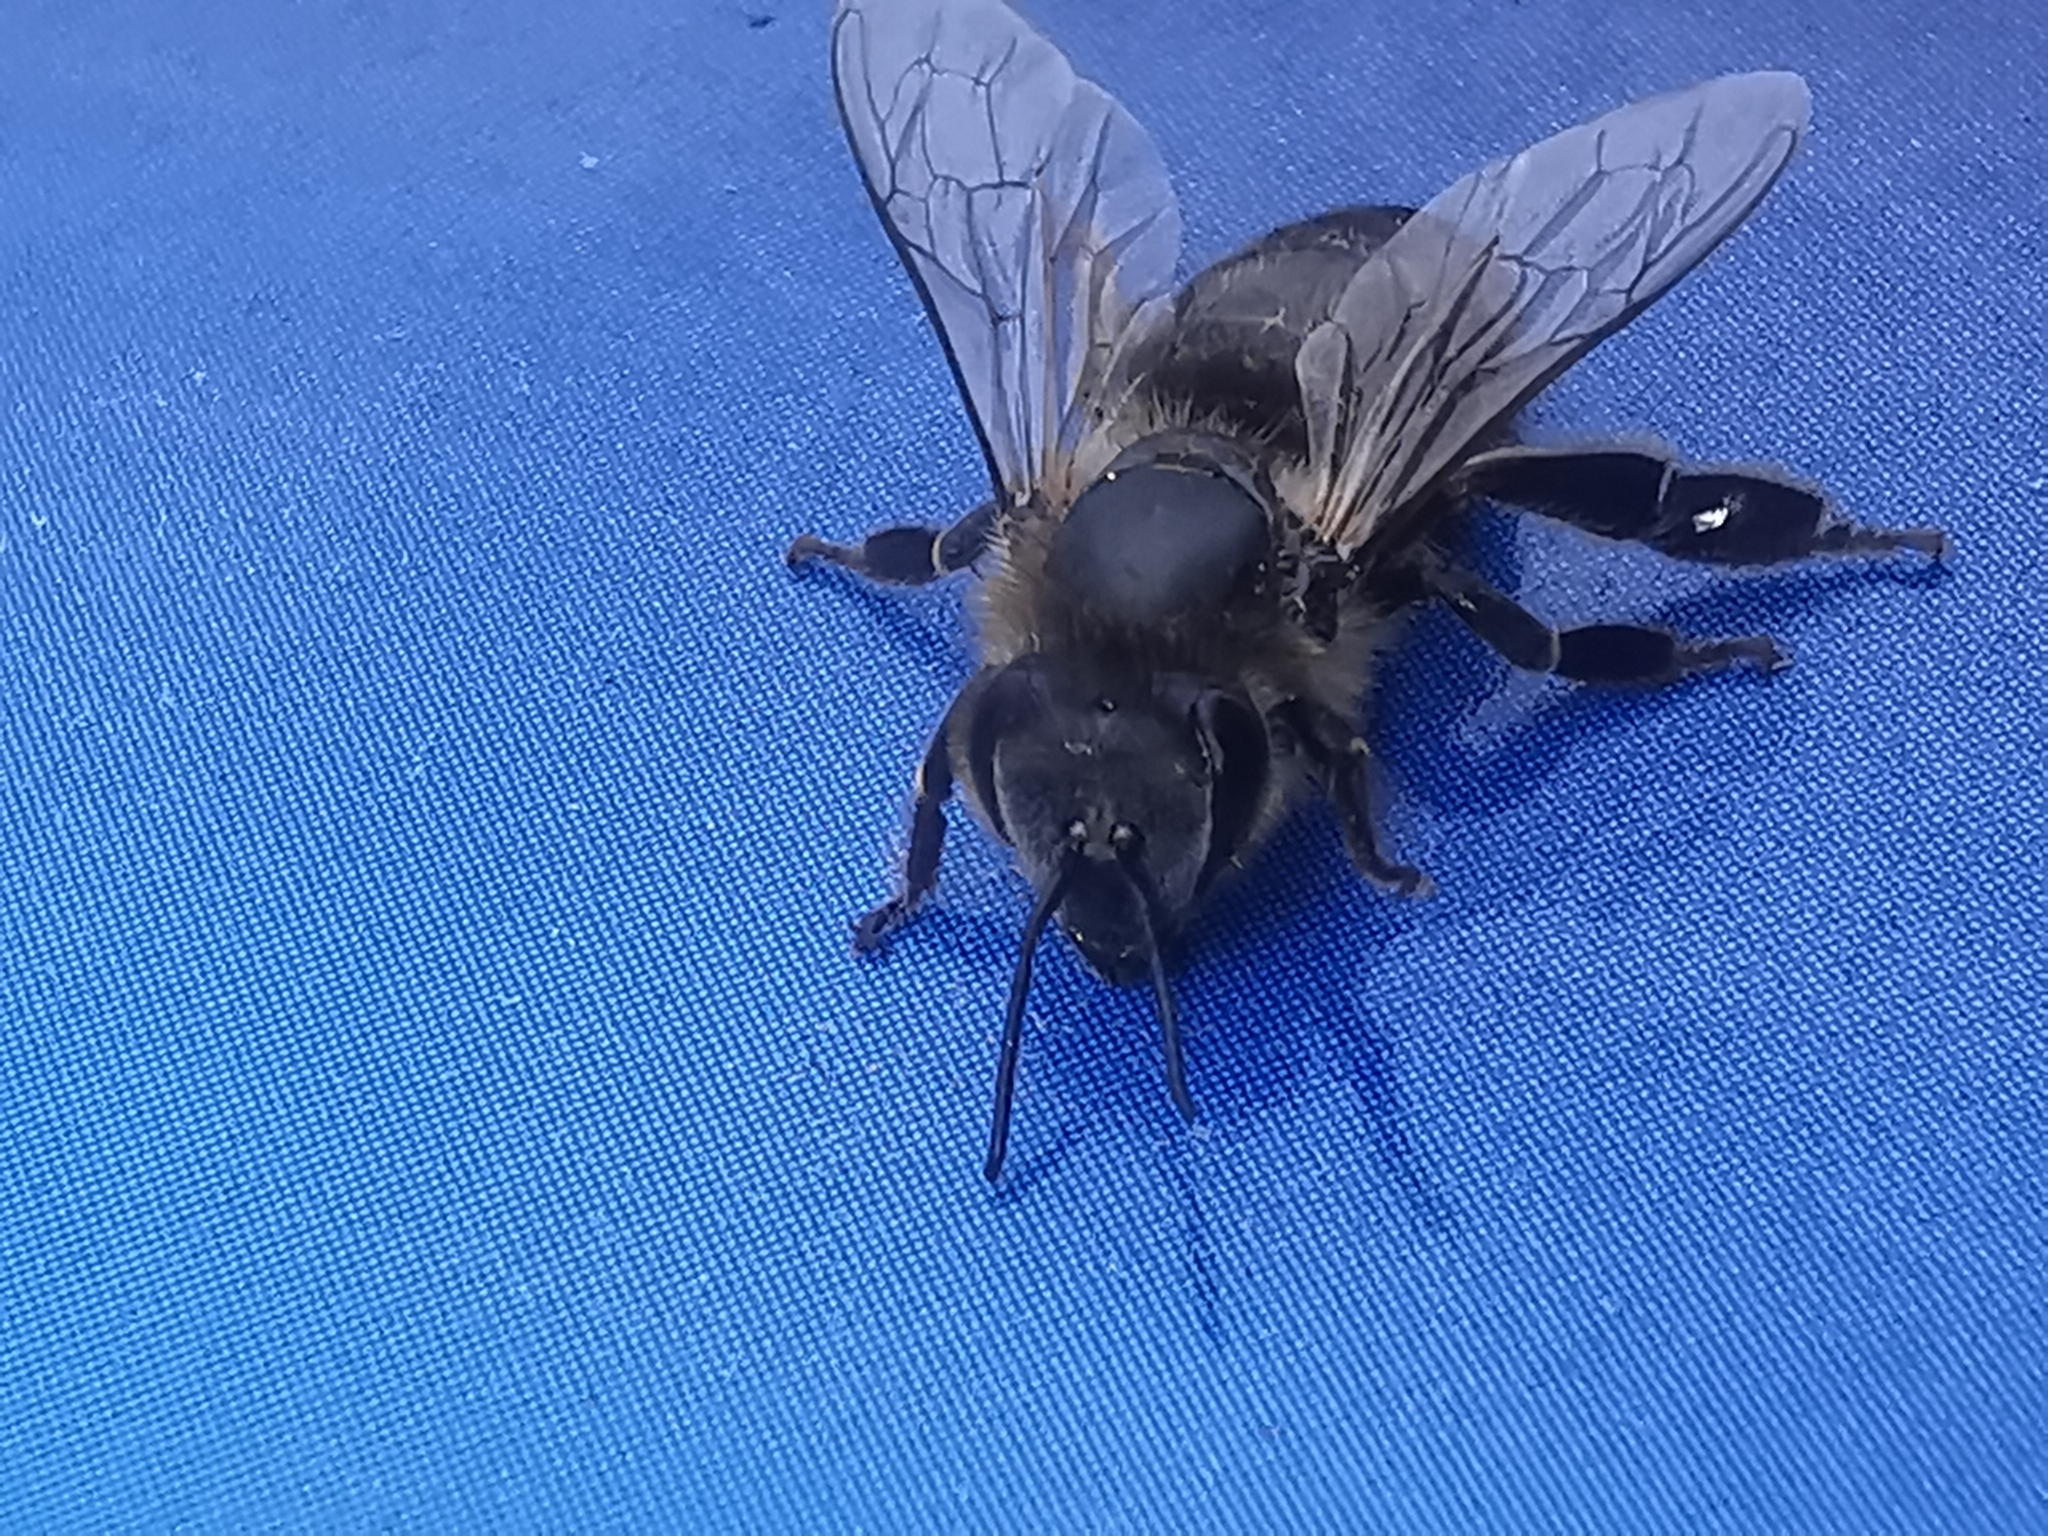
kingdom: Animalia
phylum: Arthropoda
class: Insecta
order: Hymenoptera
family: Apidae
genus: Apis
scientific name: Apis mellifera
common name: Honey bee
